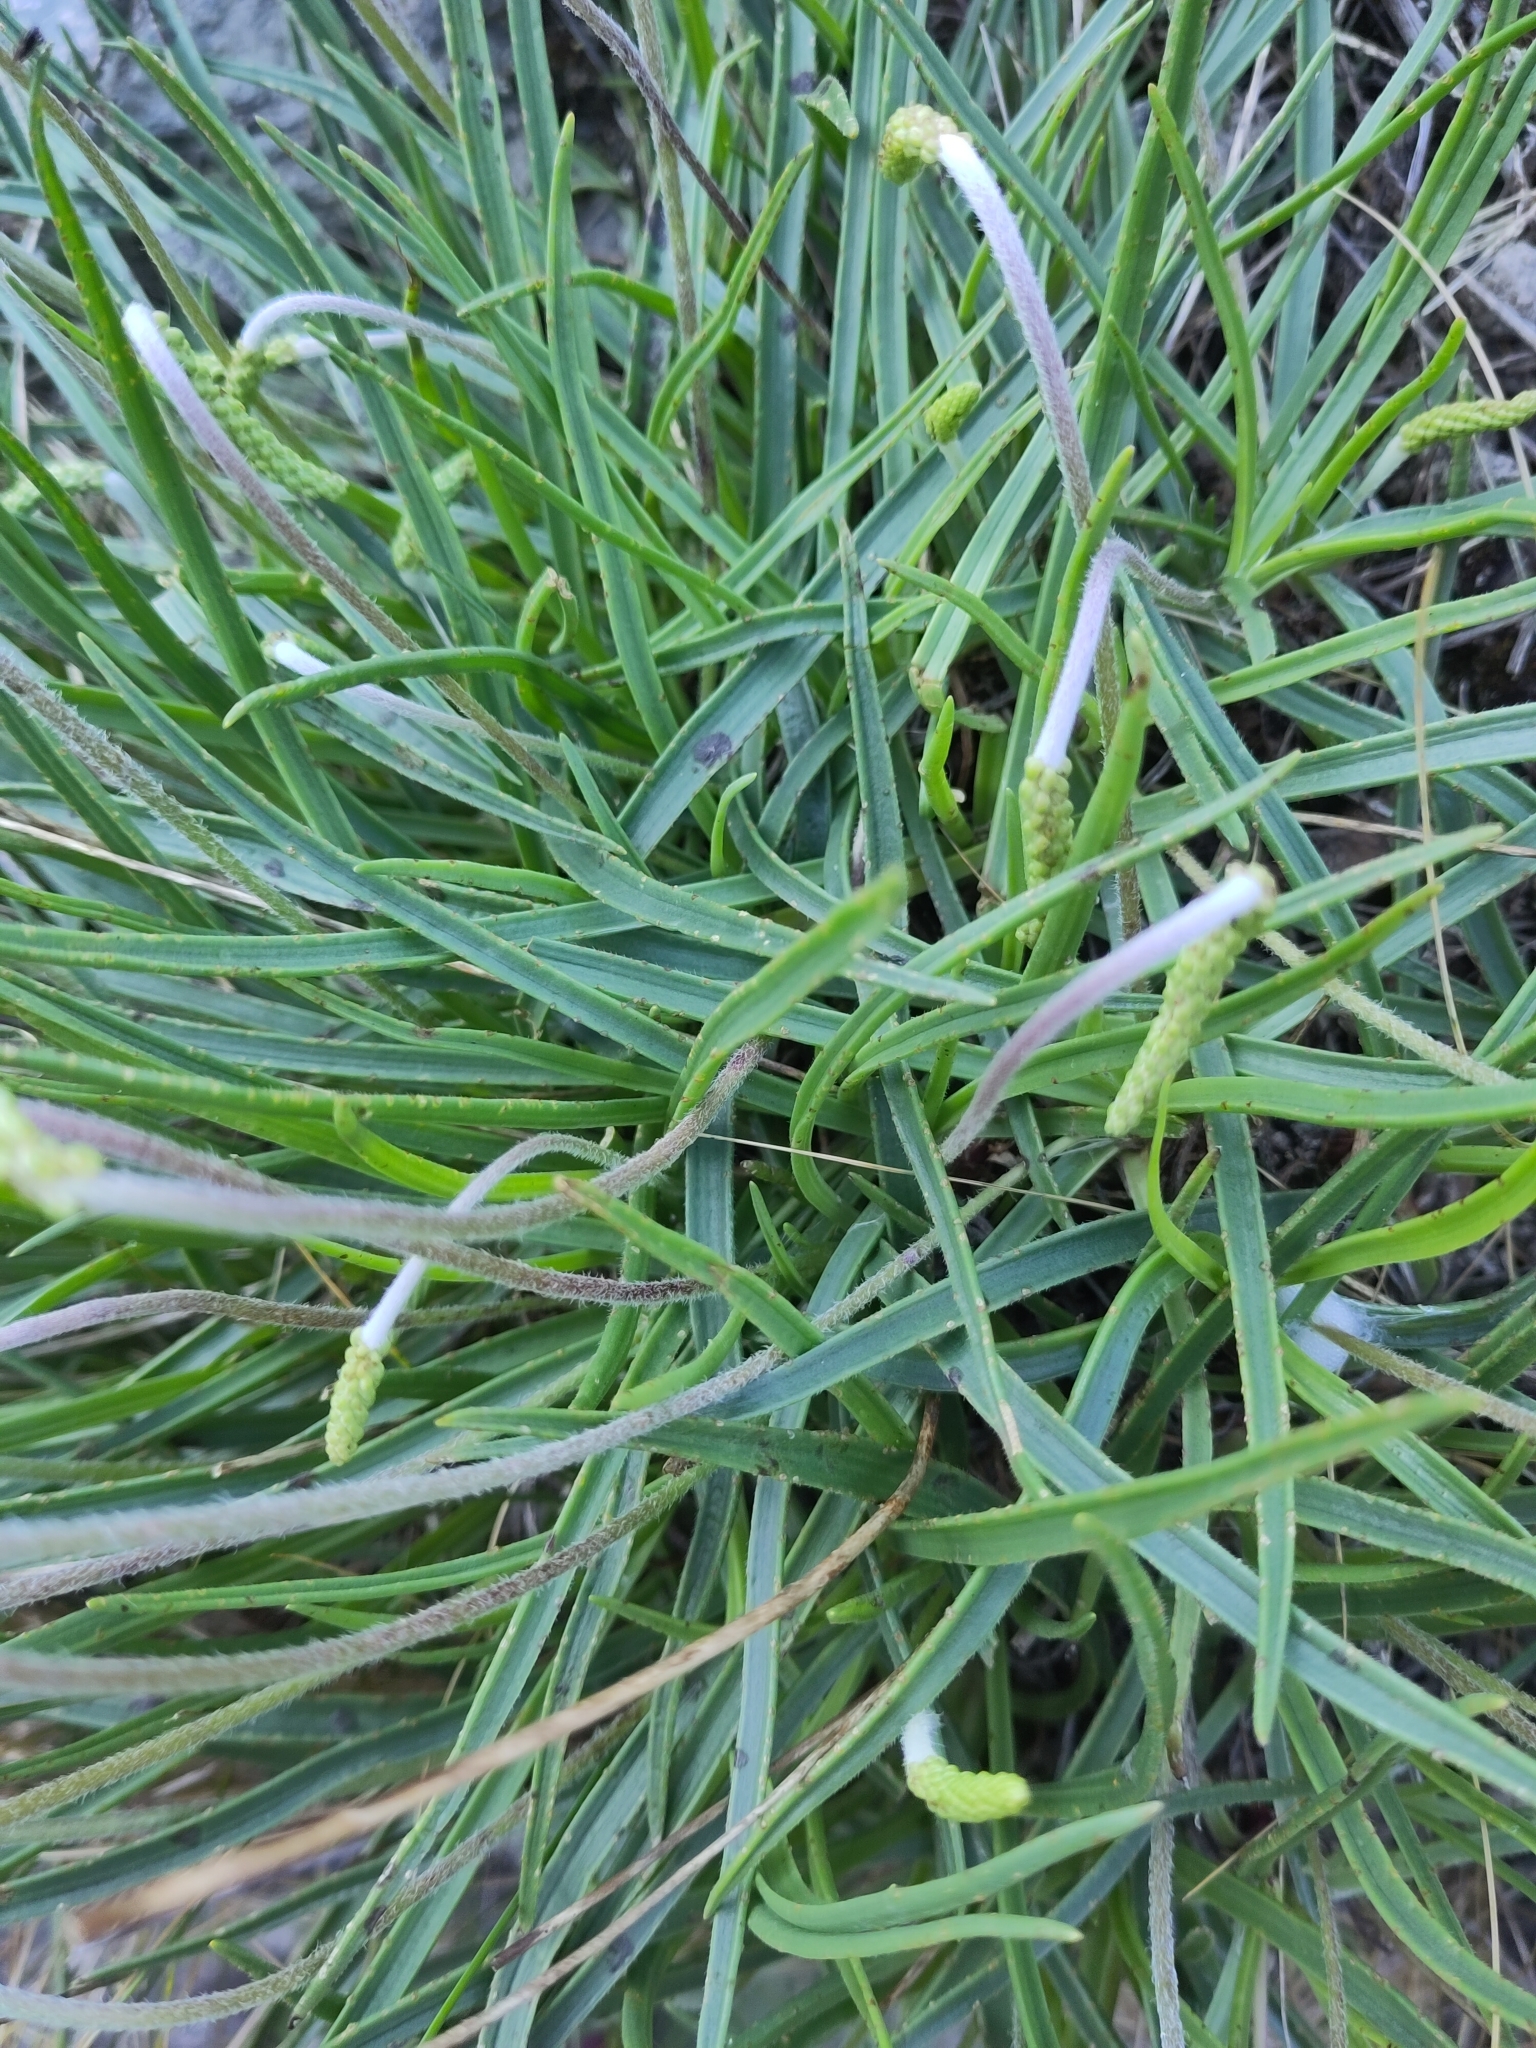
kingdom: Plantae
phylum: Tracheophyta
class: Magnoliopsida
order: Lamiales
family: Plantaginaceae
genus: Plantago
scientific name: Plantago maritima
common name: Sea plantain
